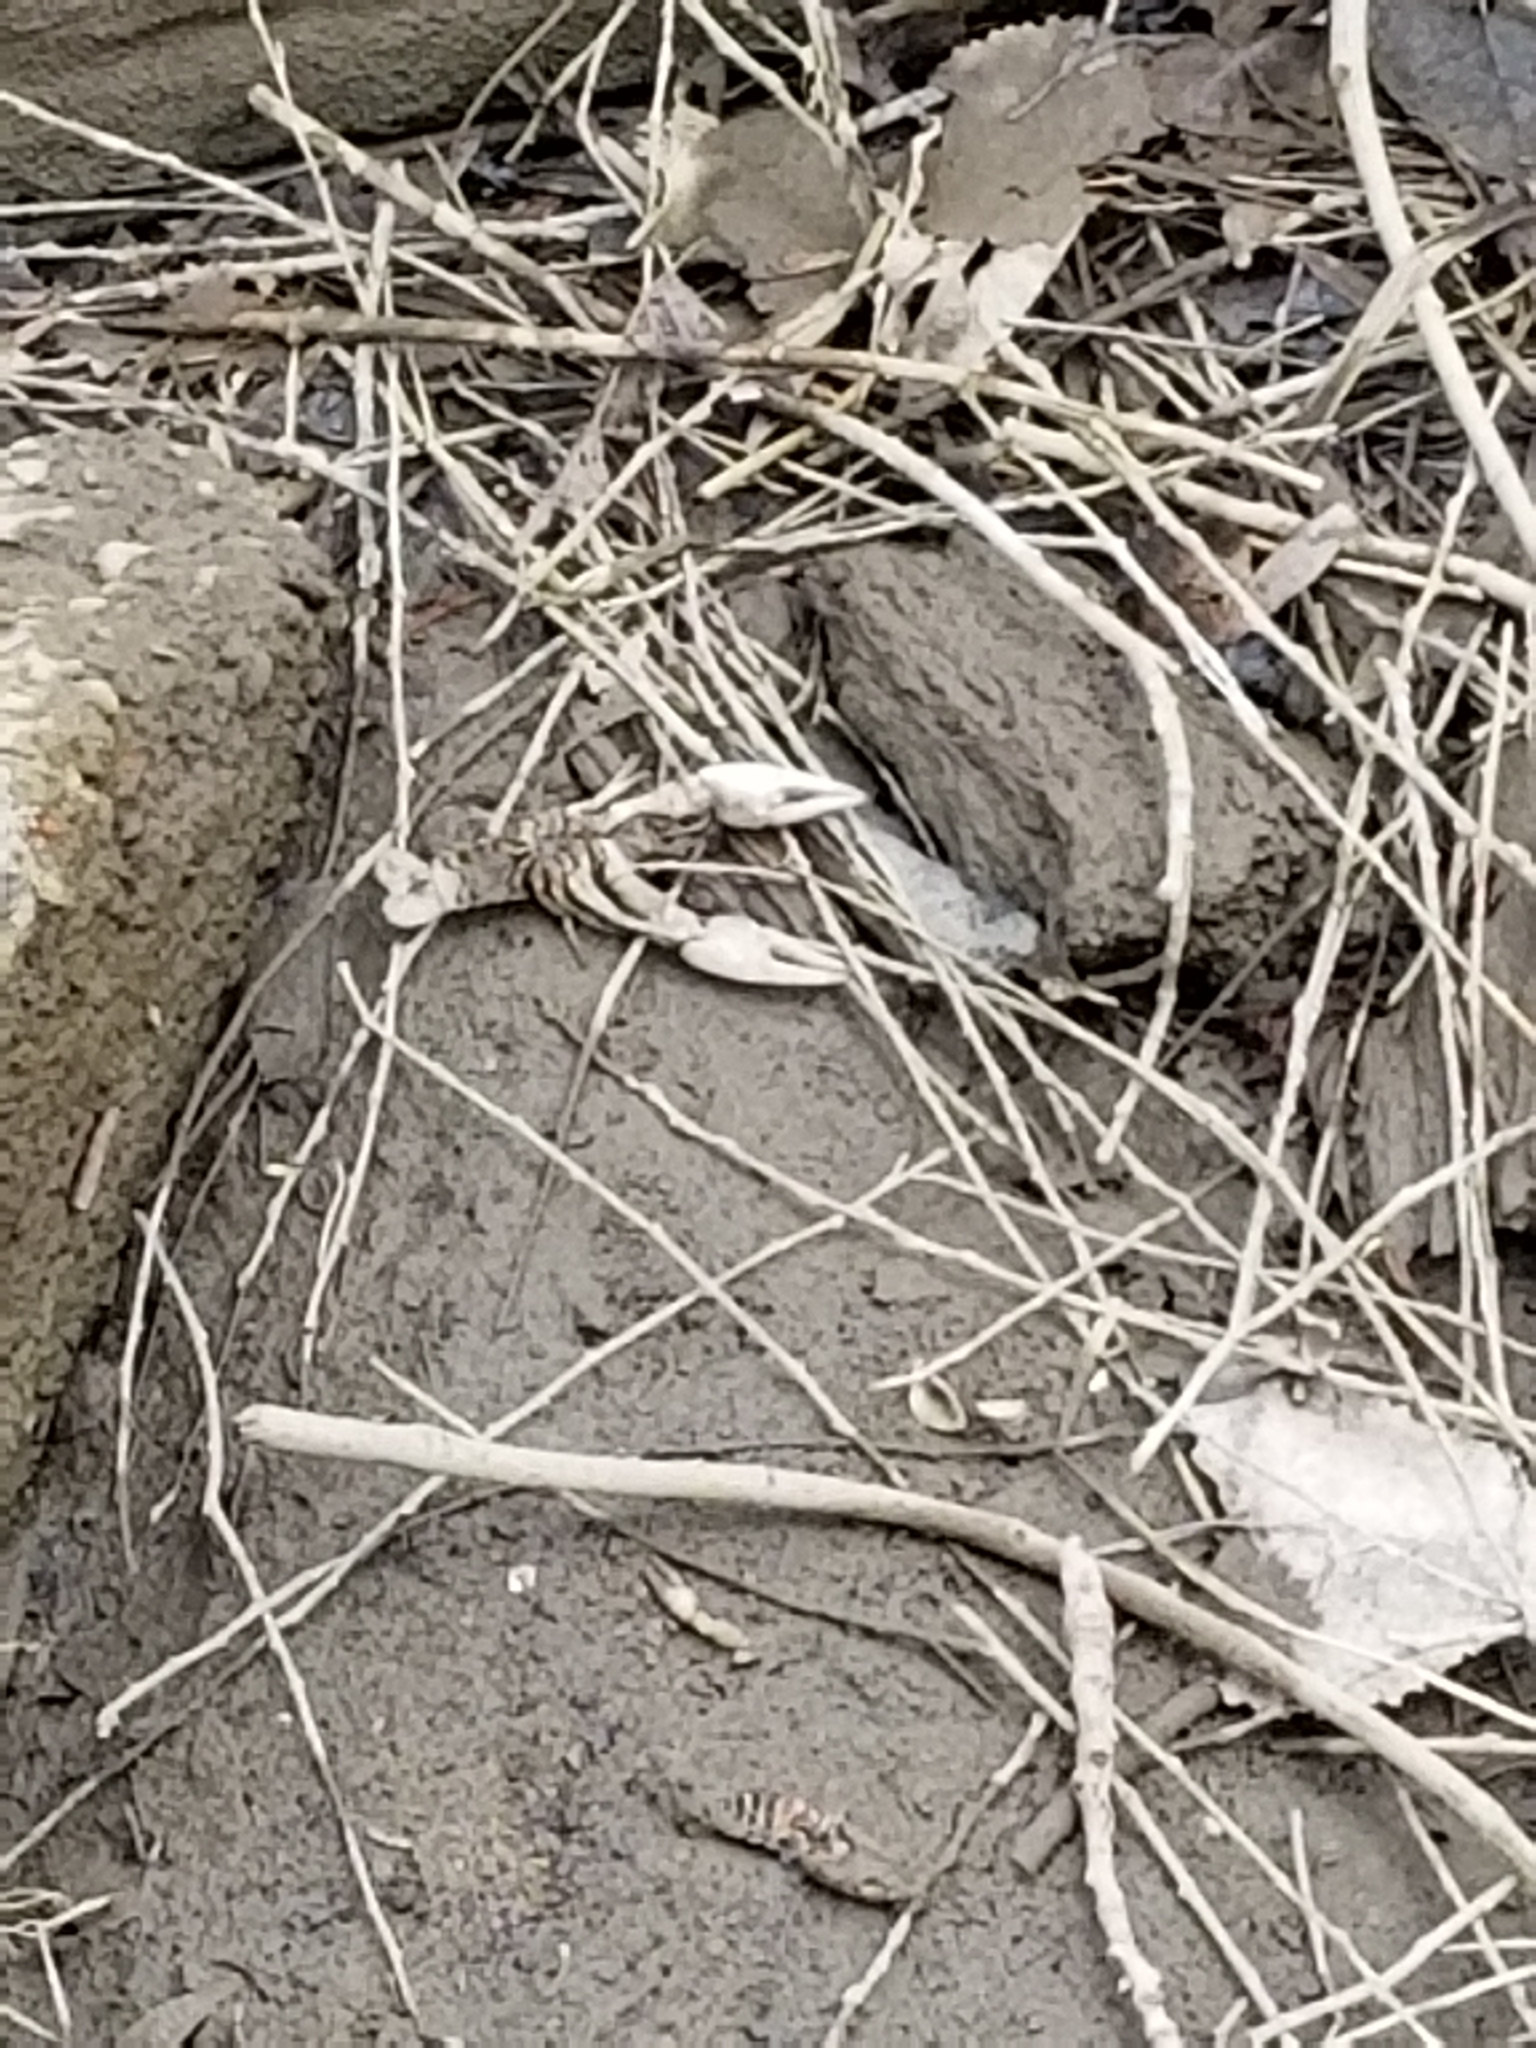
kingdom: Animalia
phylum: Arthropoda
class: Malacostraca
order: Decapoda
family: Cambaridae
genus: Faxonius
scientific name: Faxonius rusticus
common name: Rusty crayfish
